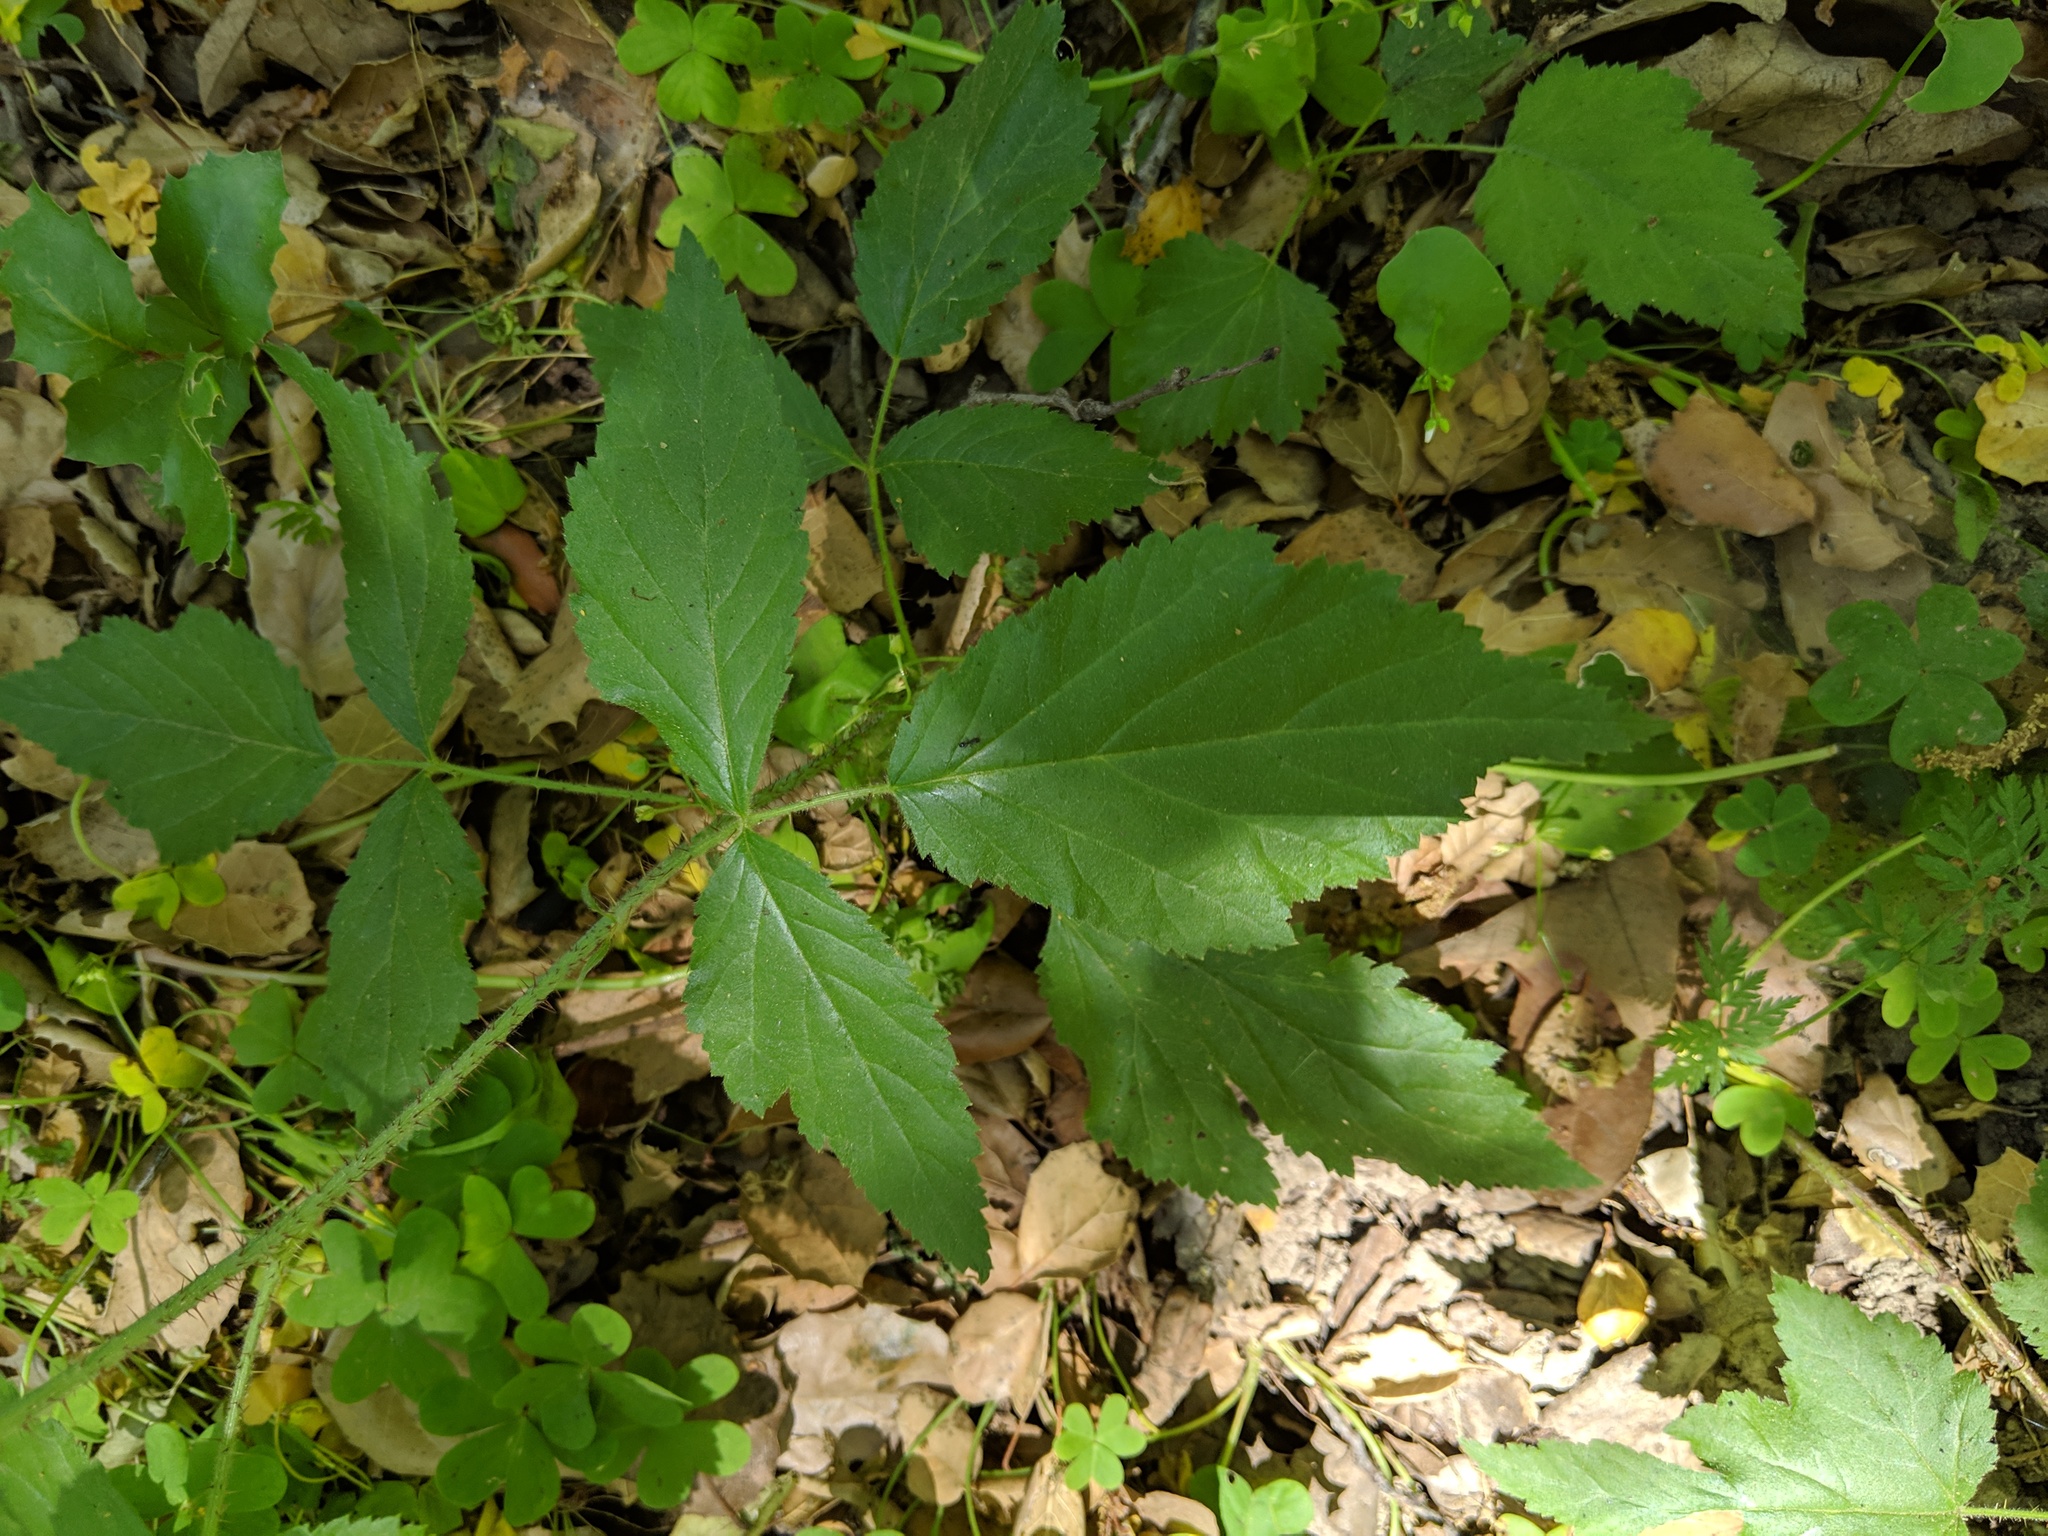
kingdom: Plantae
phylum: Tracheophyta
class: Magnoliopsida
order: Rosales
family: Rosaceae
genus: Rubus
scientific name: Rubus ursinus
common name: Pacific blackberry
